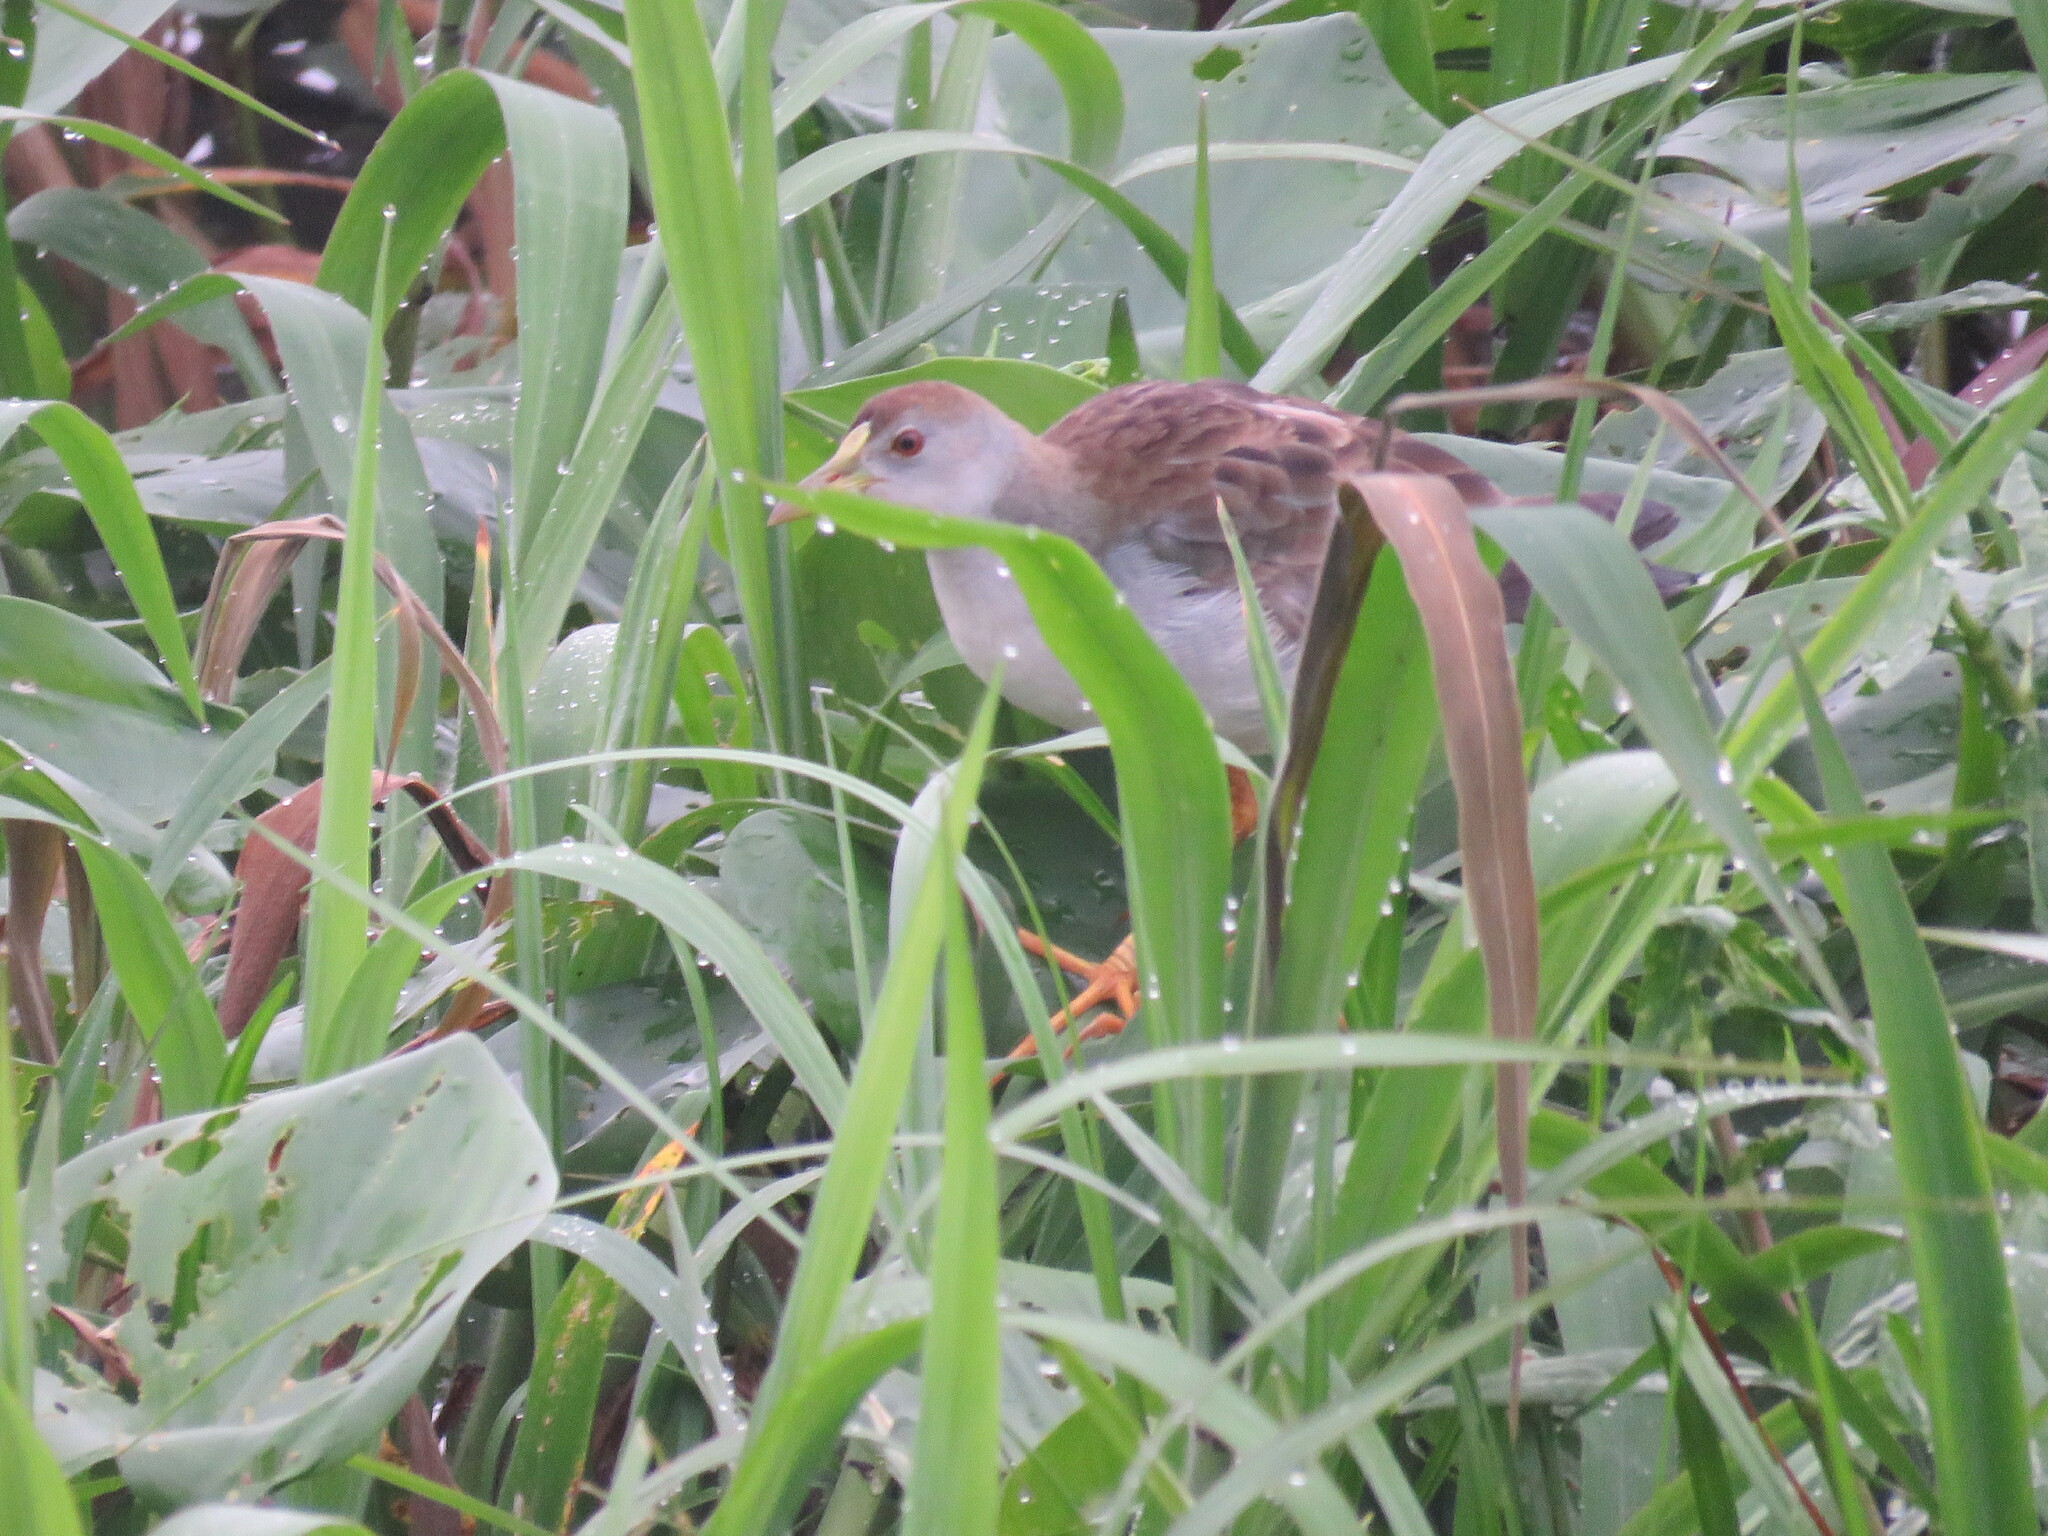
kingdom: Animalia
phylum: Chordata
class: Aves
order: Gruiformes
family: Rallidae
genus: Porphyrio
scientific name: Porphyrio flavirostris
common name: Azure gallinule
